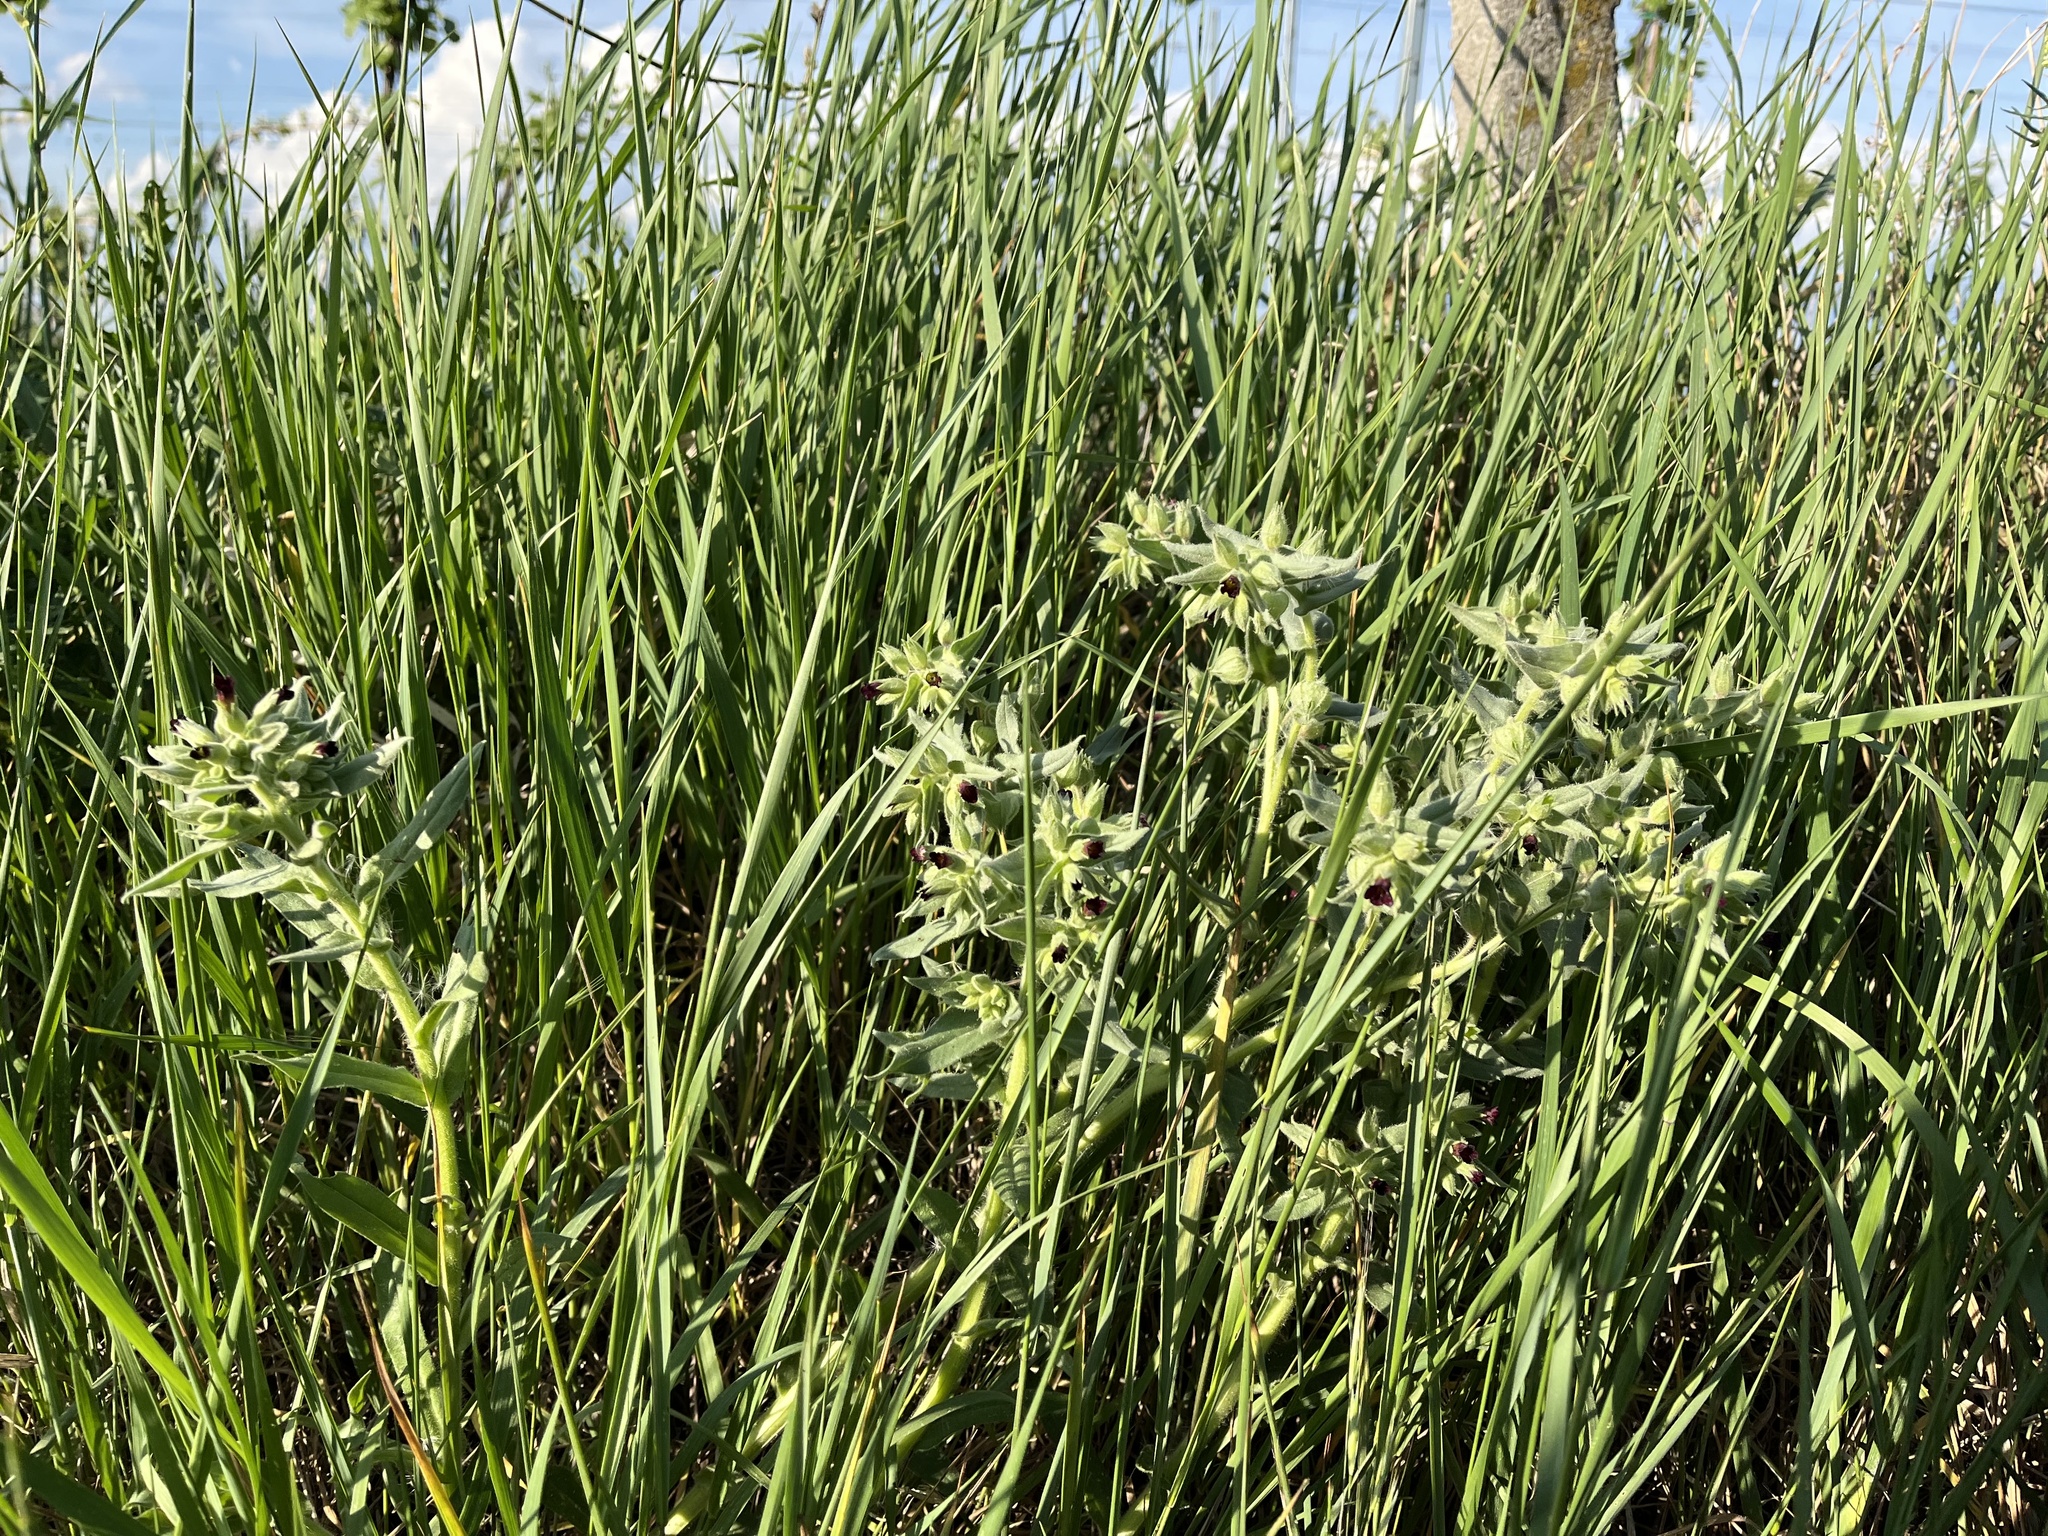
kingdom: Plantae
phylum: Tracheophyta
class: Magnoliopsida
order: Boraginales
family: Boraginaceae
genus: Nonea
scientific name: Nonea pulla
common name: Brown nonea
